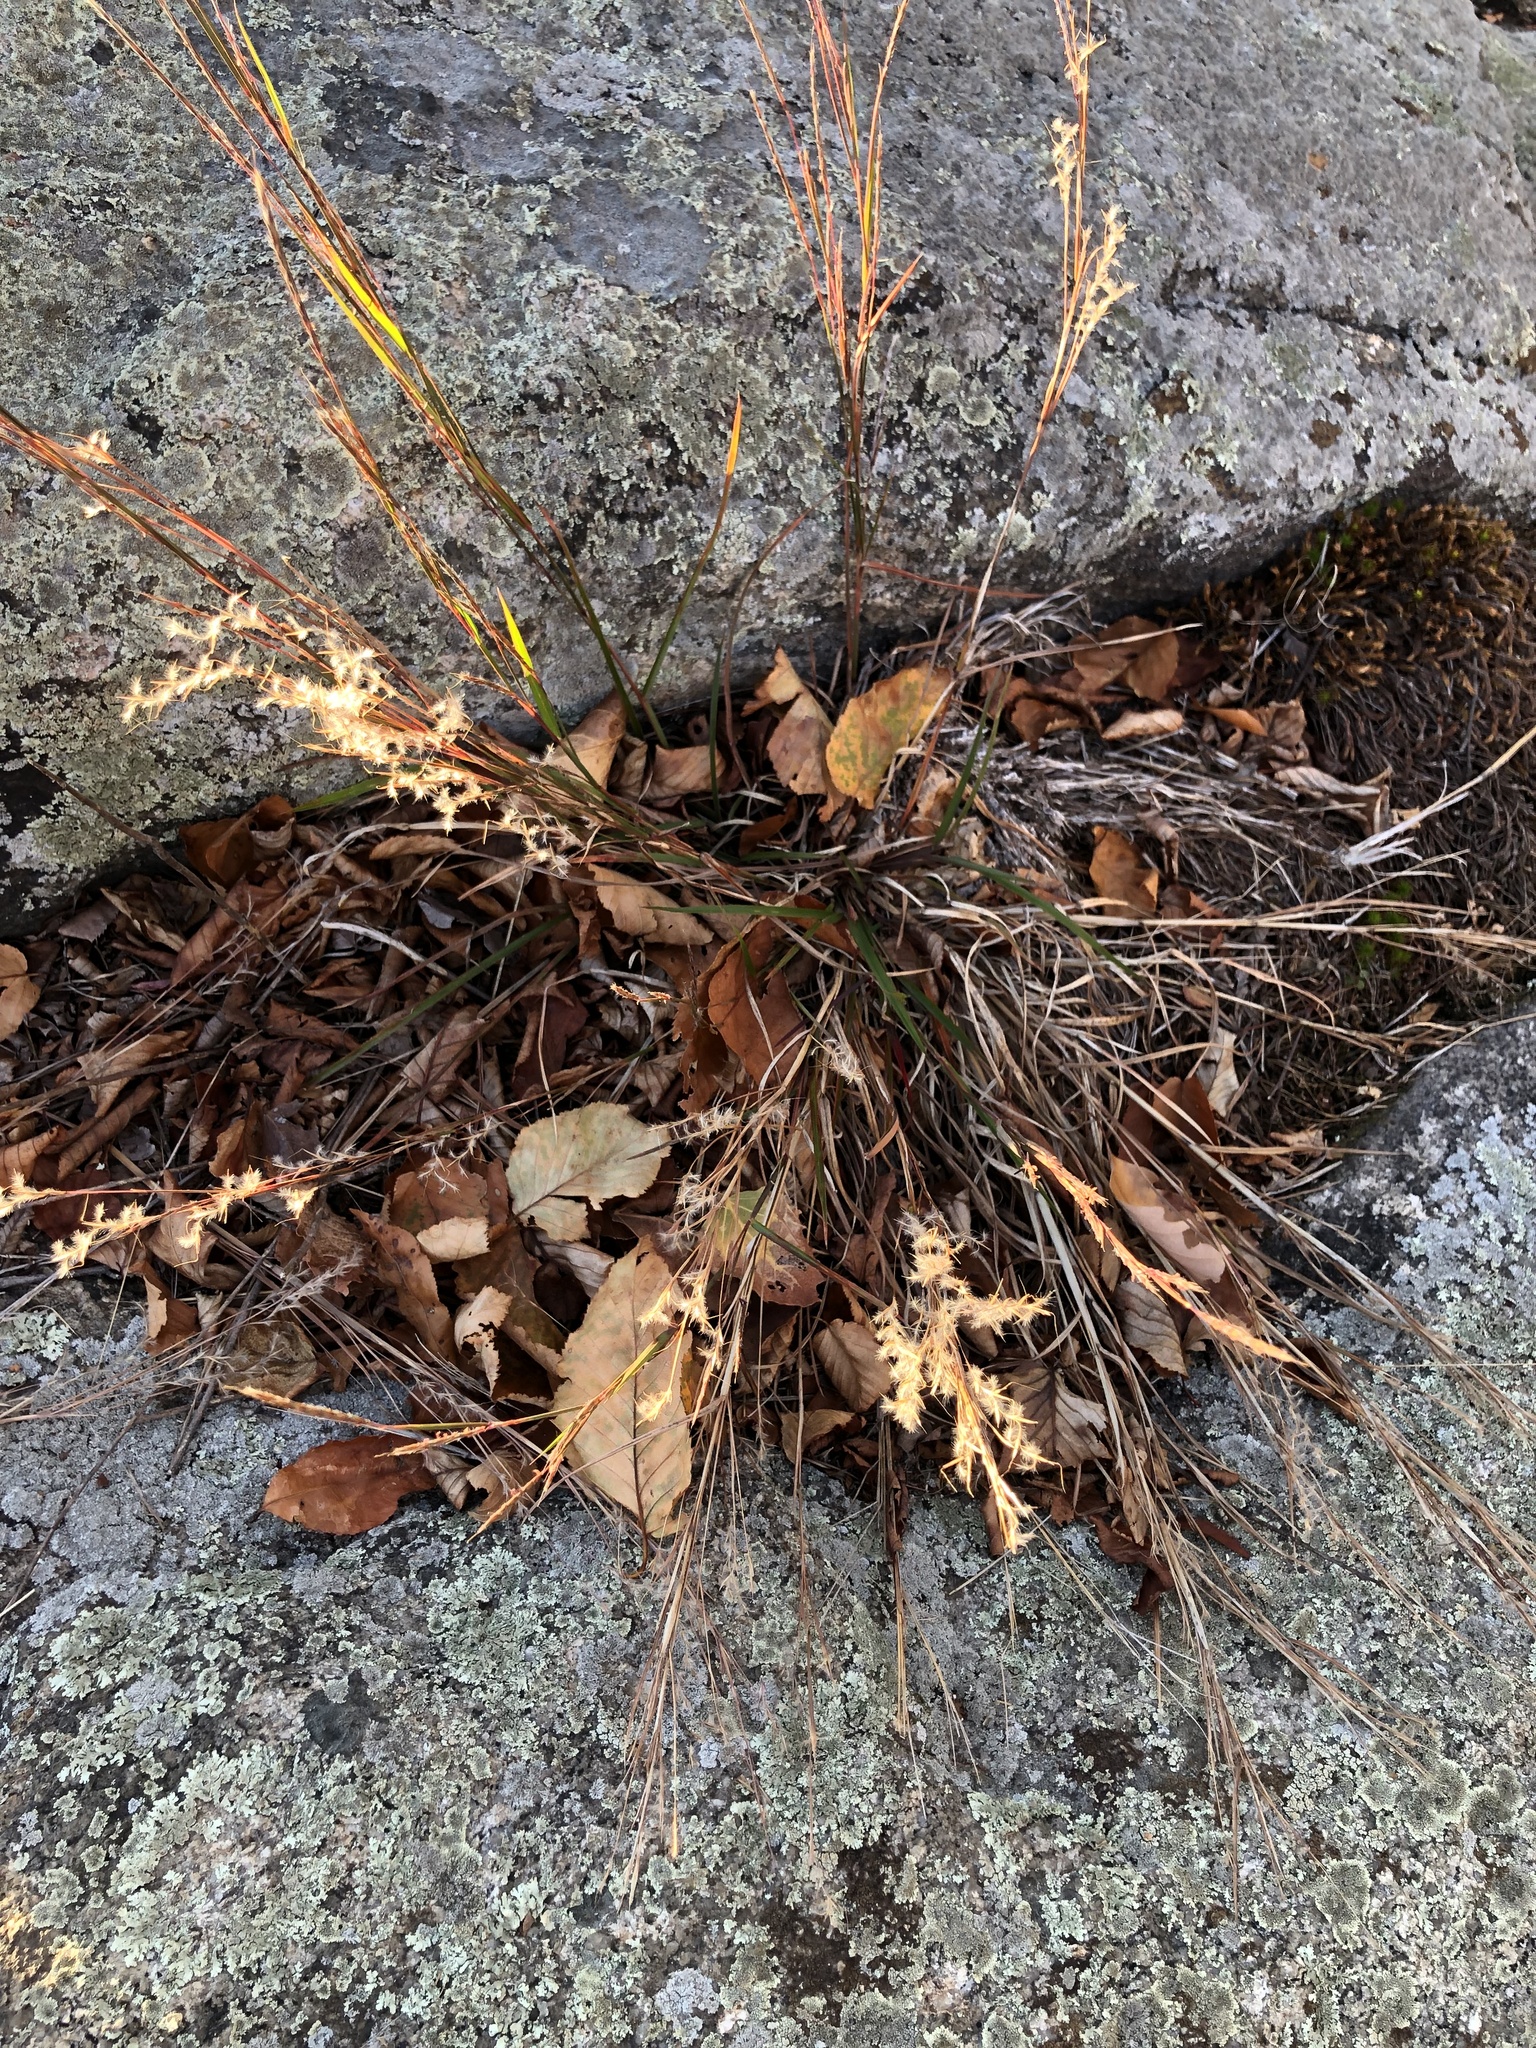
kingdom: Plantae
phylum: Tracheophyta
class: Liliopsida
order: Poales
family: Poaceae
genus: Schizachyrium
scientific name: Schizachyrium scoparium
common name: Little bluestem
